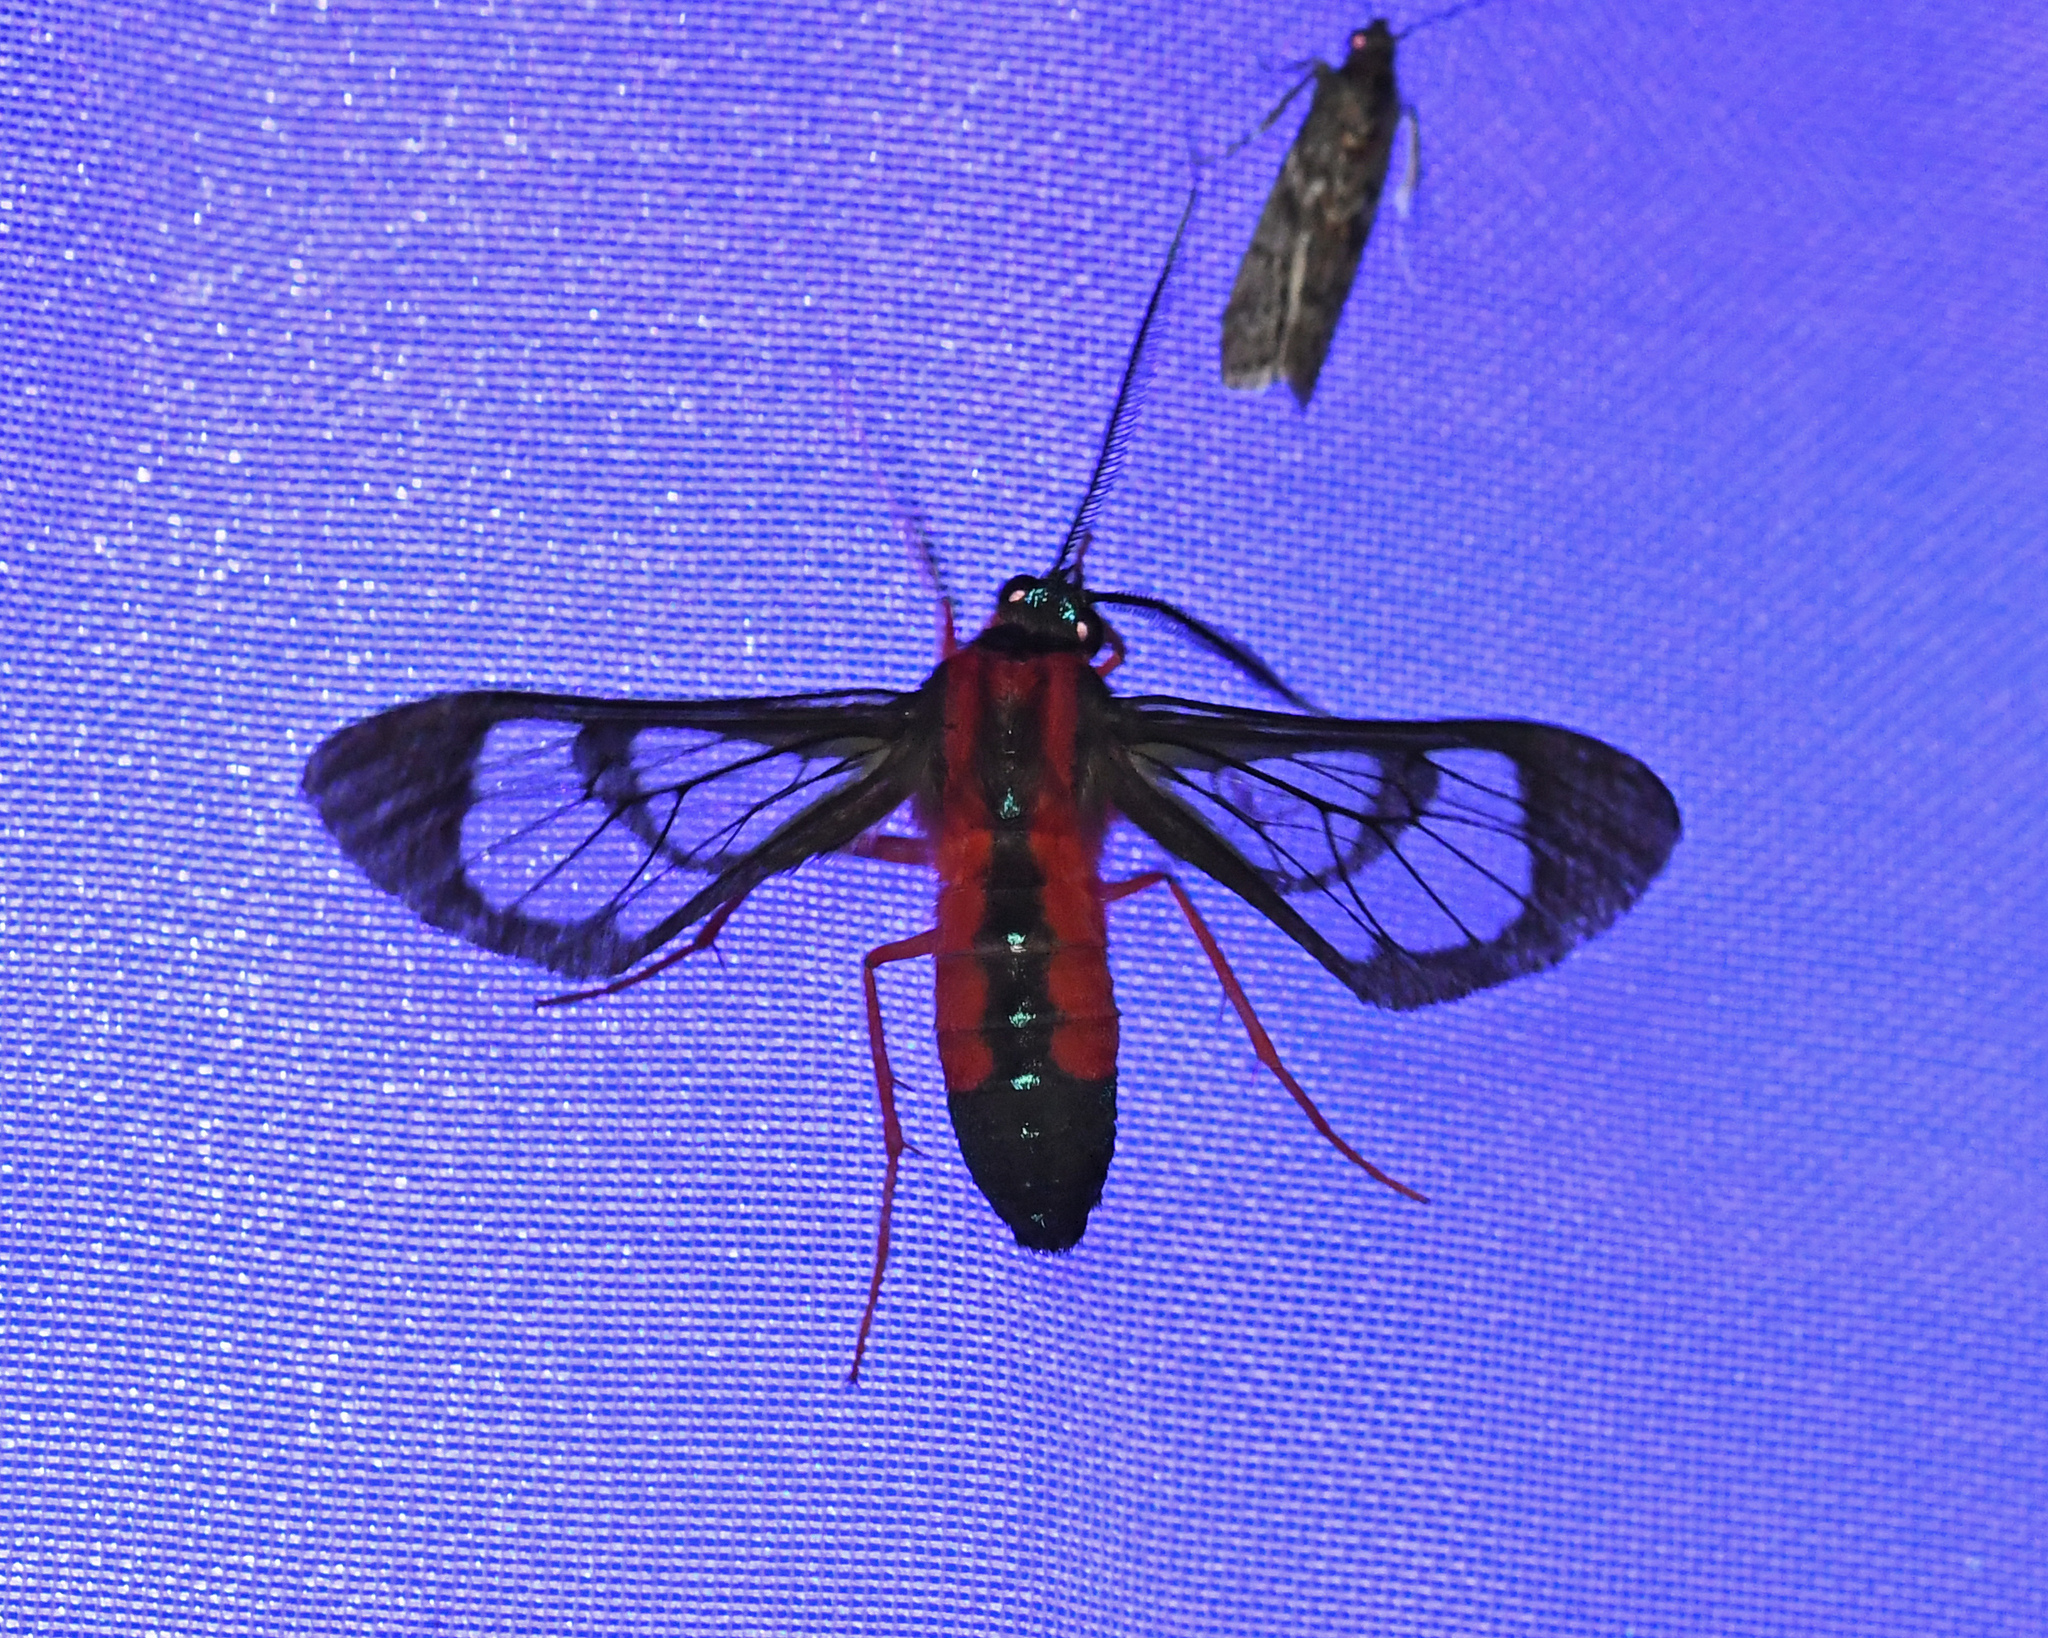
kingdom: Animalia
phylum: Arthropoda
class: Insecta
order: Lepidoptera
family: Erebidae
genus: Cosmosoma
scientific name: Cosmosoma auge
